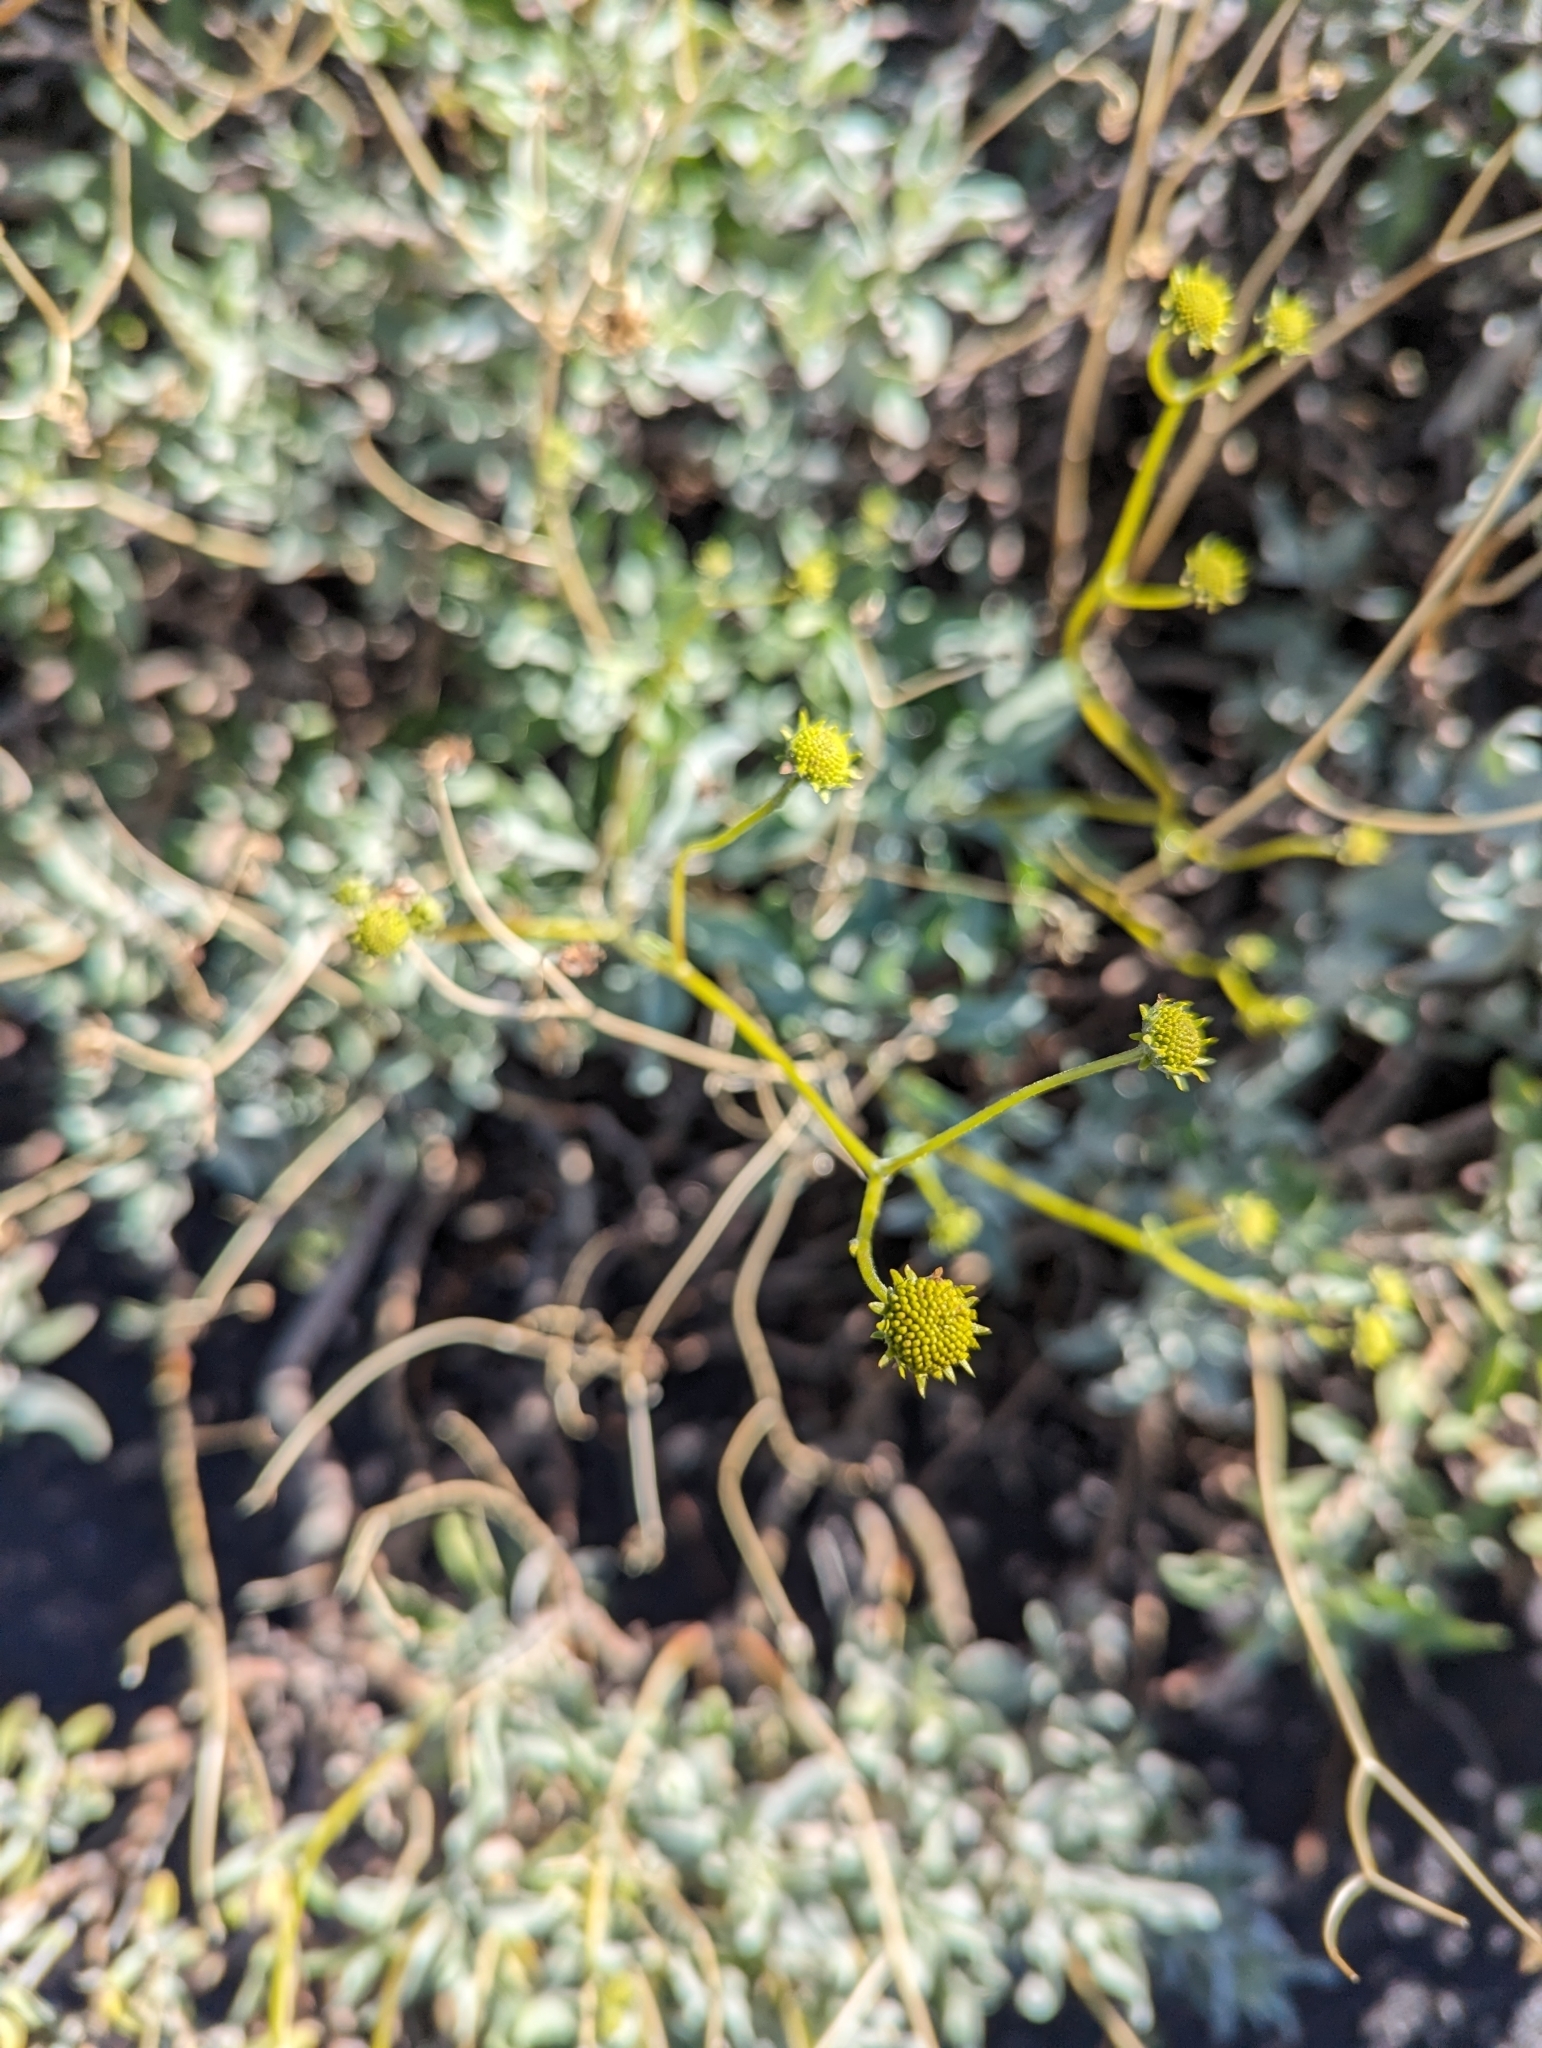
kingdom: Plantae
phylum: Tracheophyta
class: Magnoliopsida
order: Asterales
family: Asteraceae
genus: Encelia
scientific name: Encelia farinosa
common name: Brittlebush
